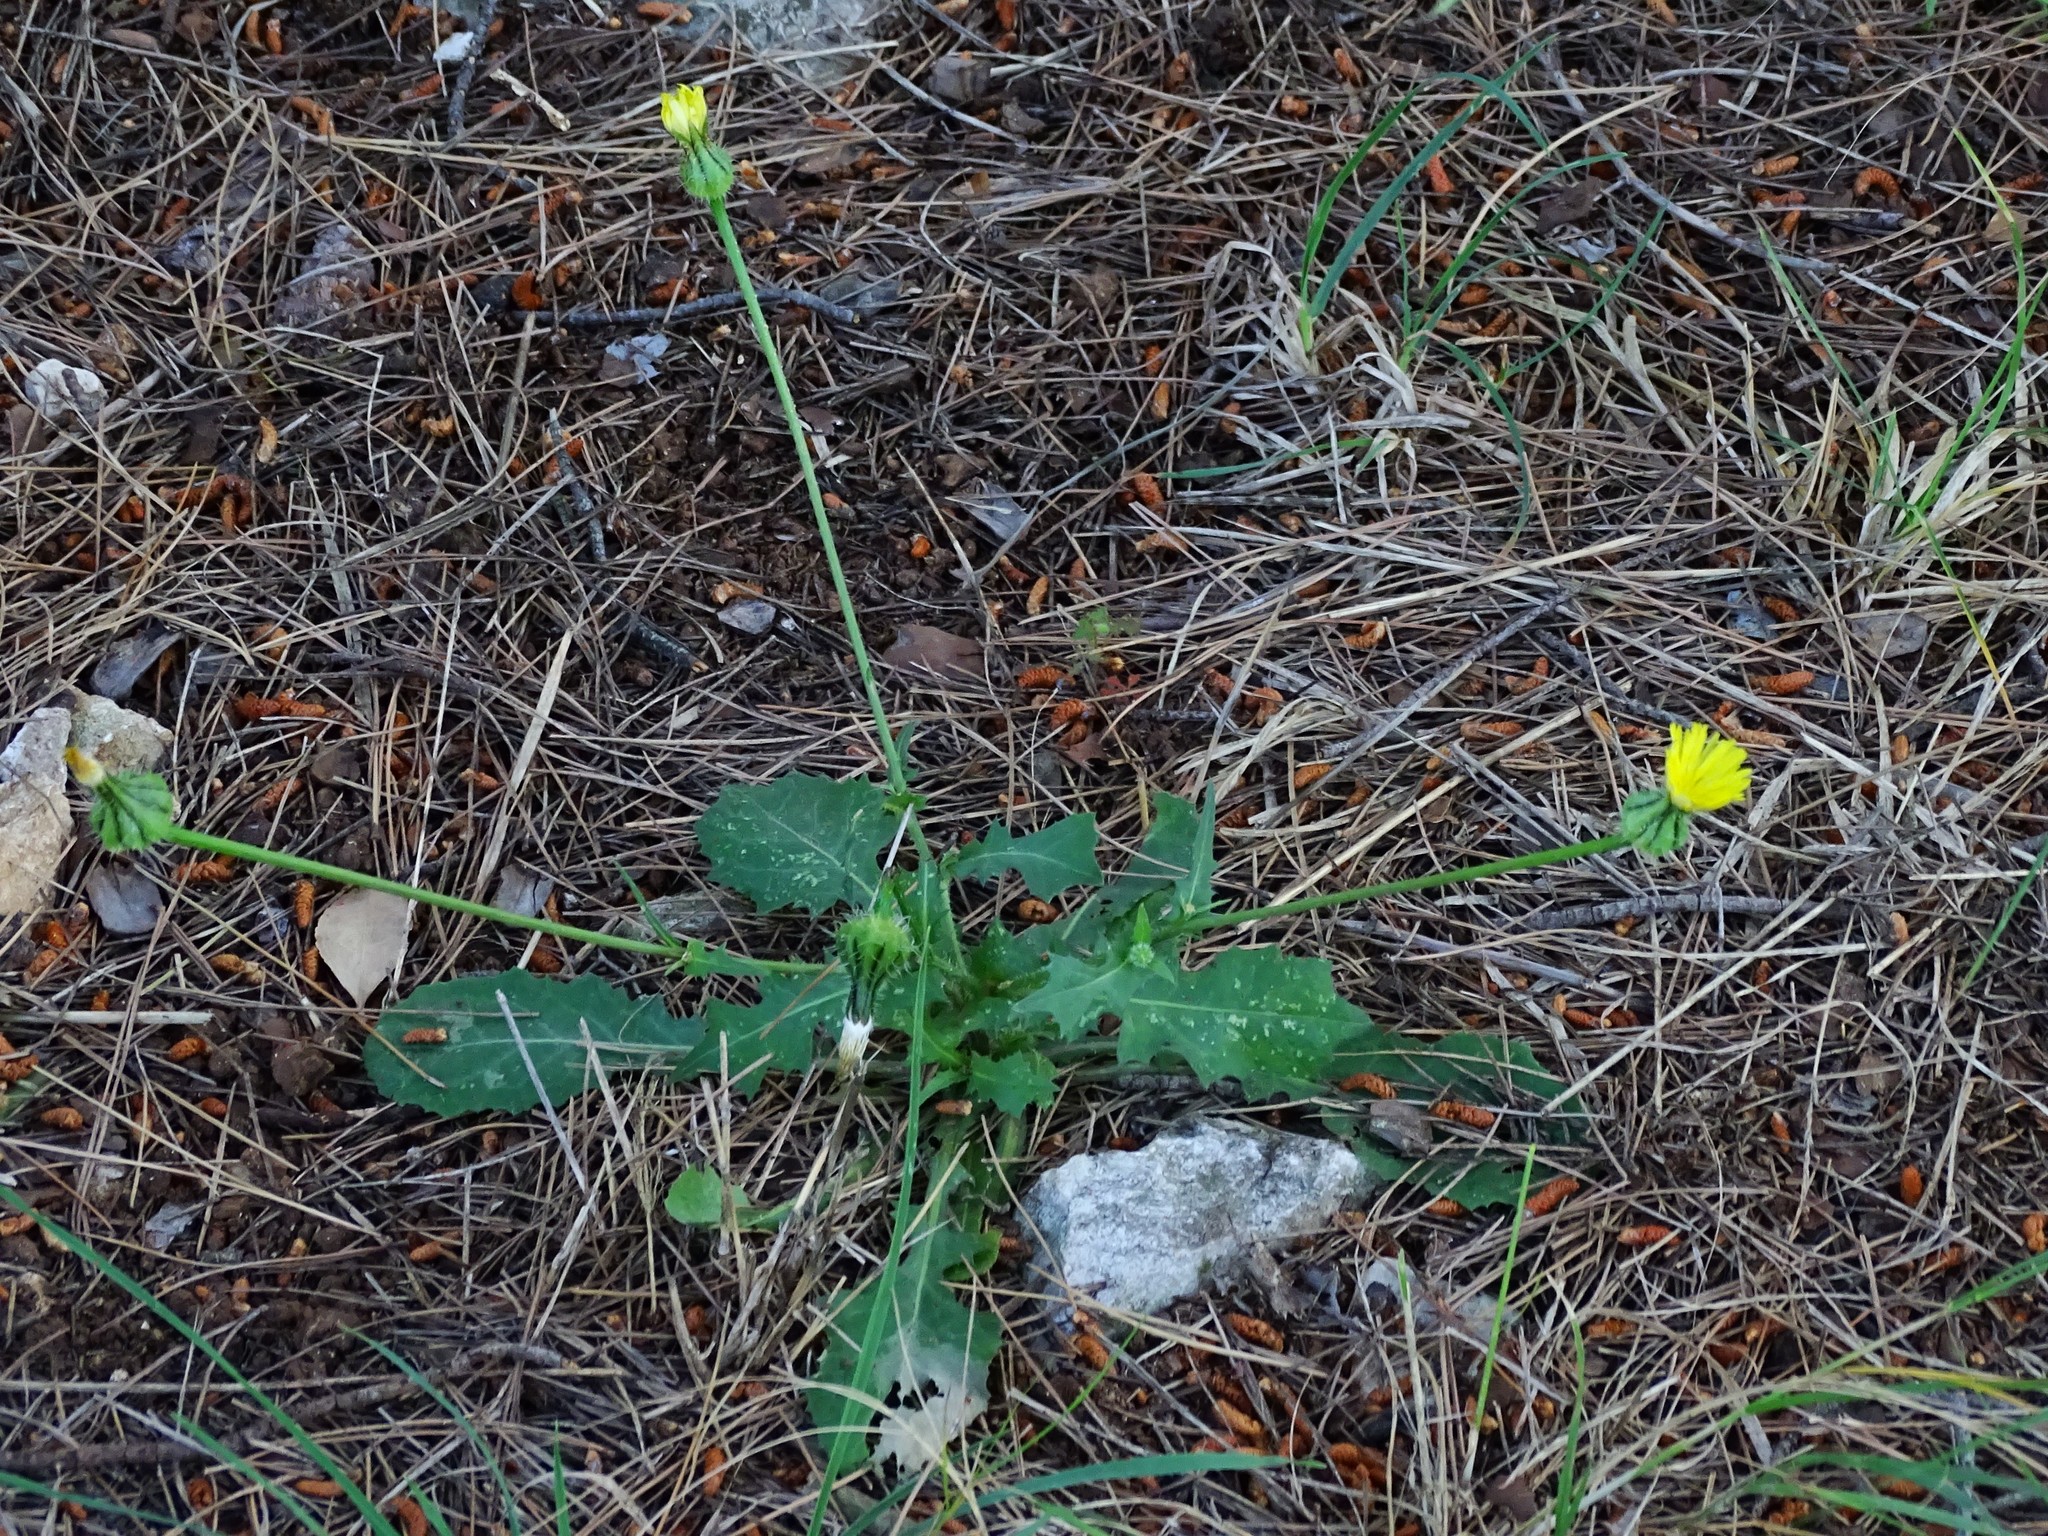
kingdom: Plantae
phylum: Tracheophyta
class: Magnoliopsida
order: Asterales
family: Asteraceae
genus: Urospermum
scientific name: Urospermum picroides
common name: False hawkbit
